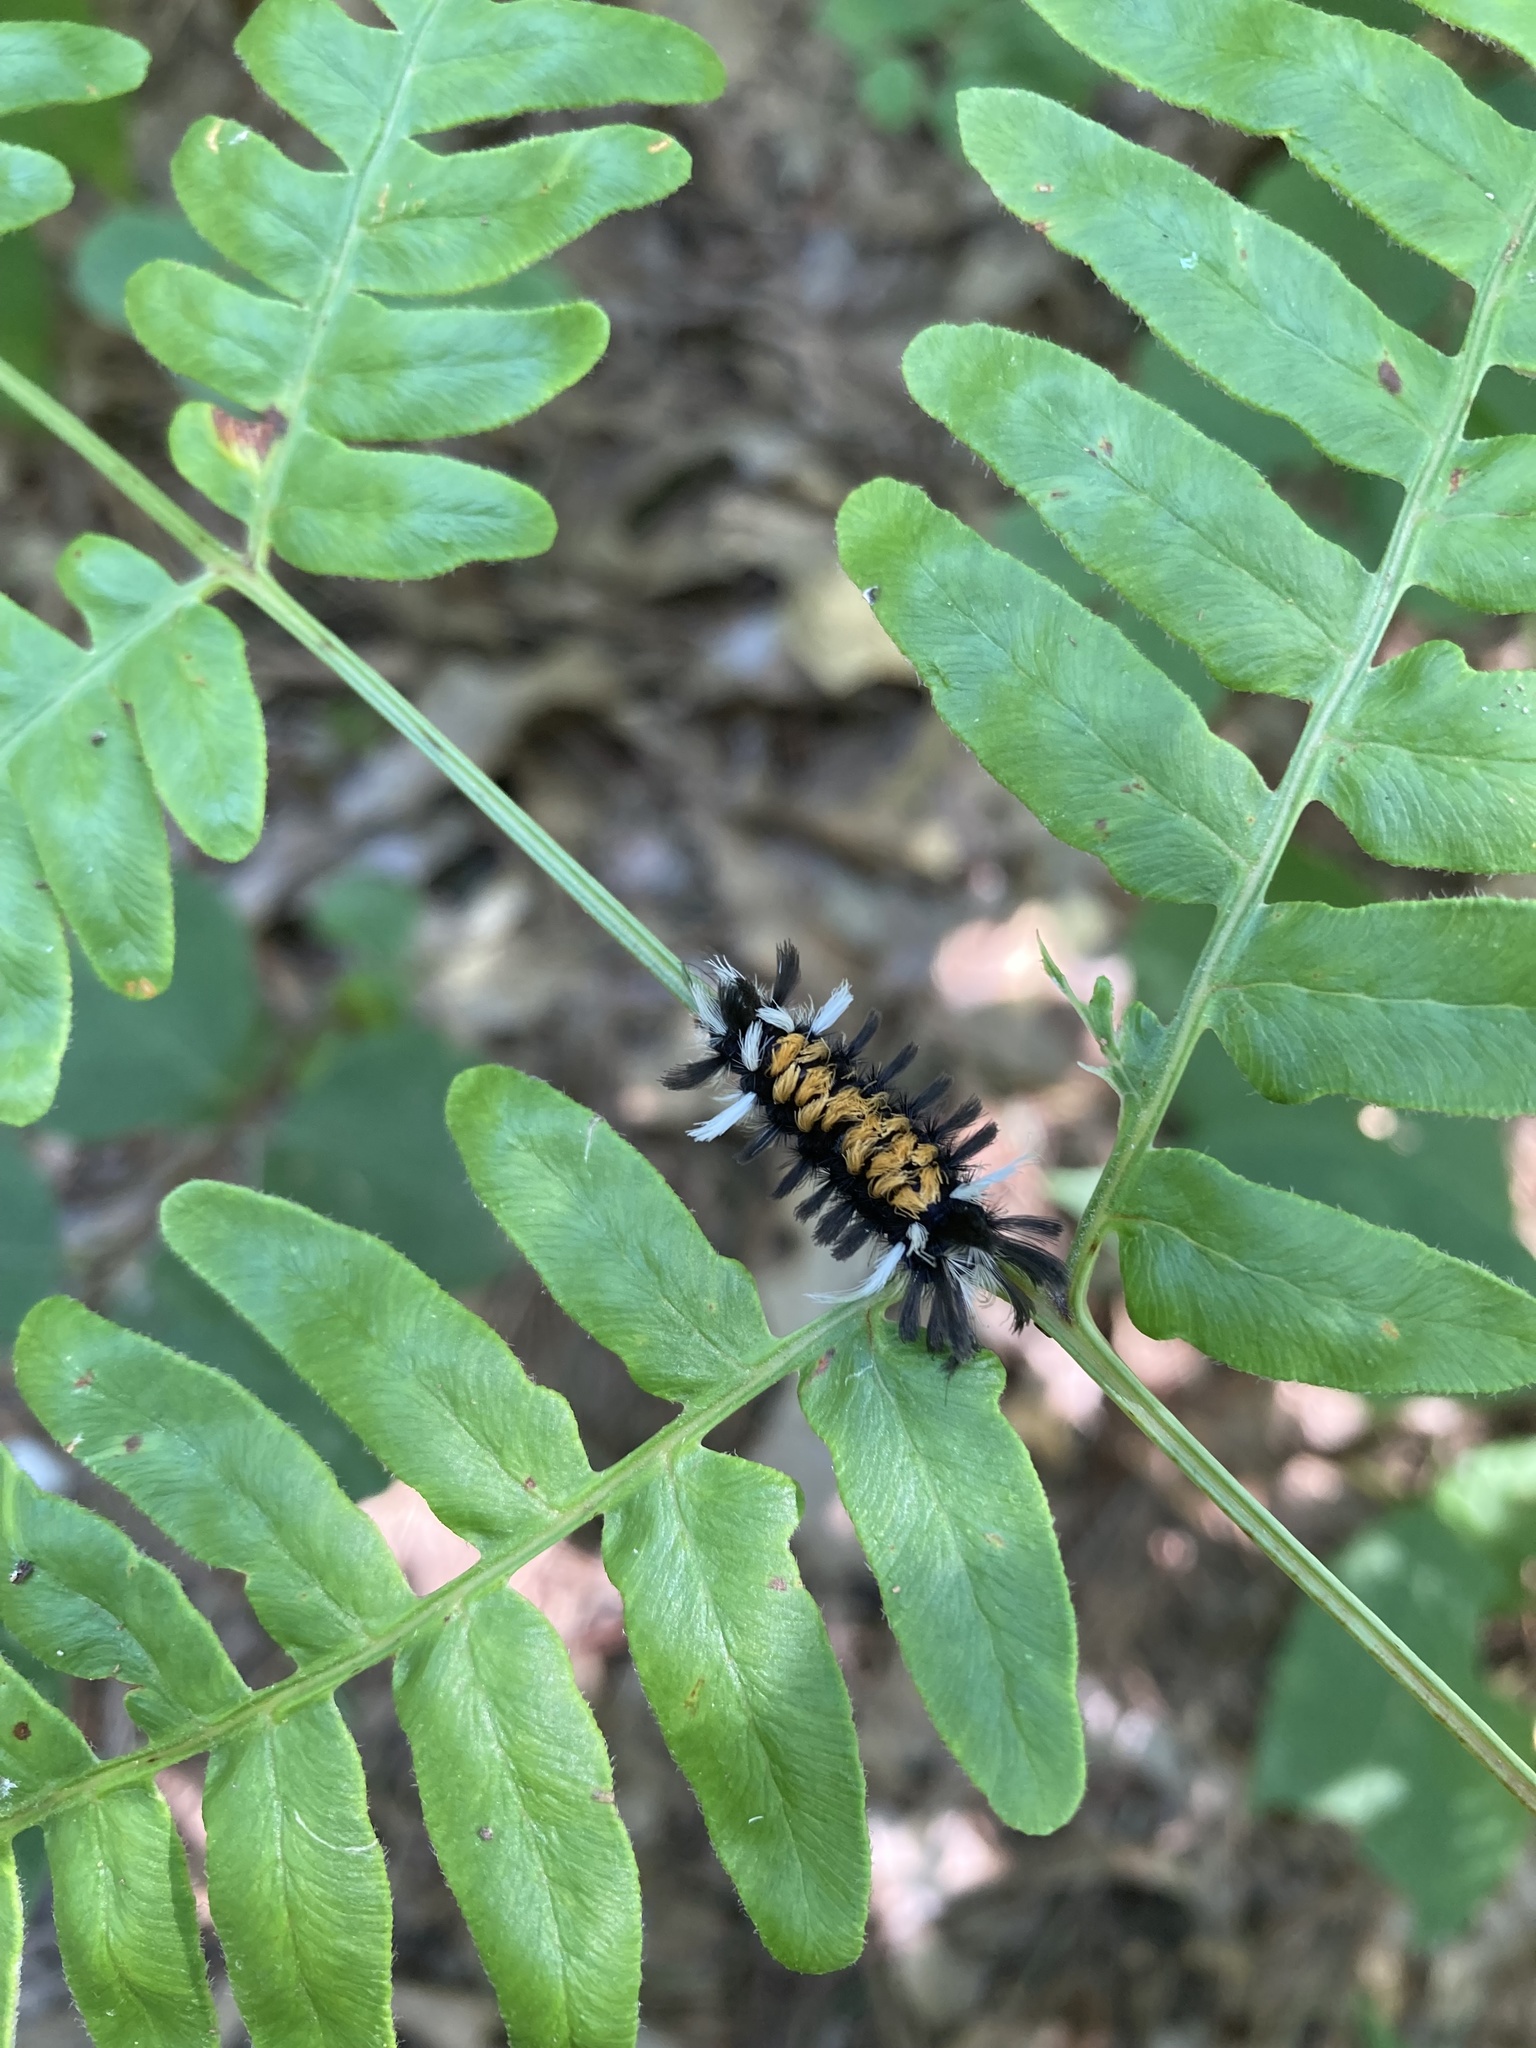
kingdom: Animalia
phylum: Arthropoda
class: Insecta
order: Lepidoptera
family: Erebidae
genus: Euchaetes
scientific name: Euchaetes egle
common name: Milkweed tussock moth
